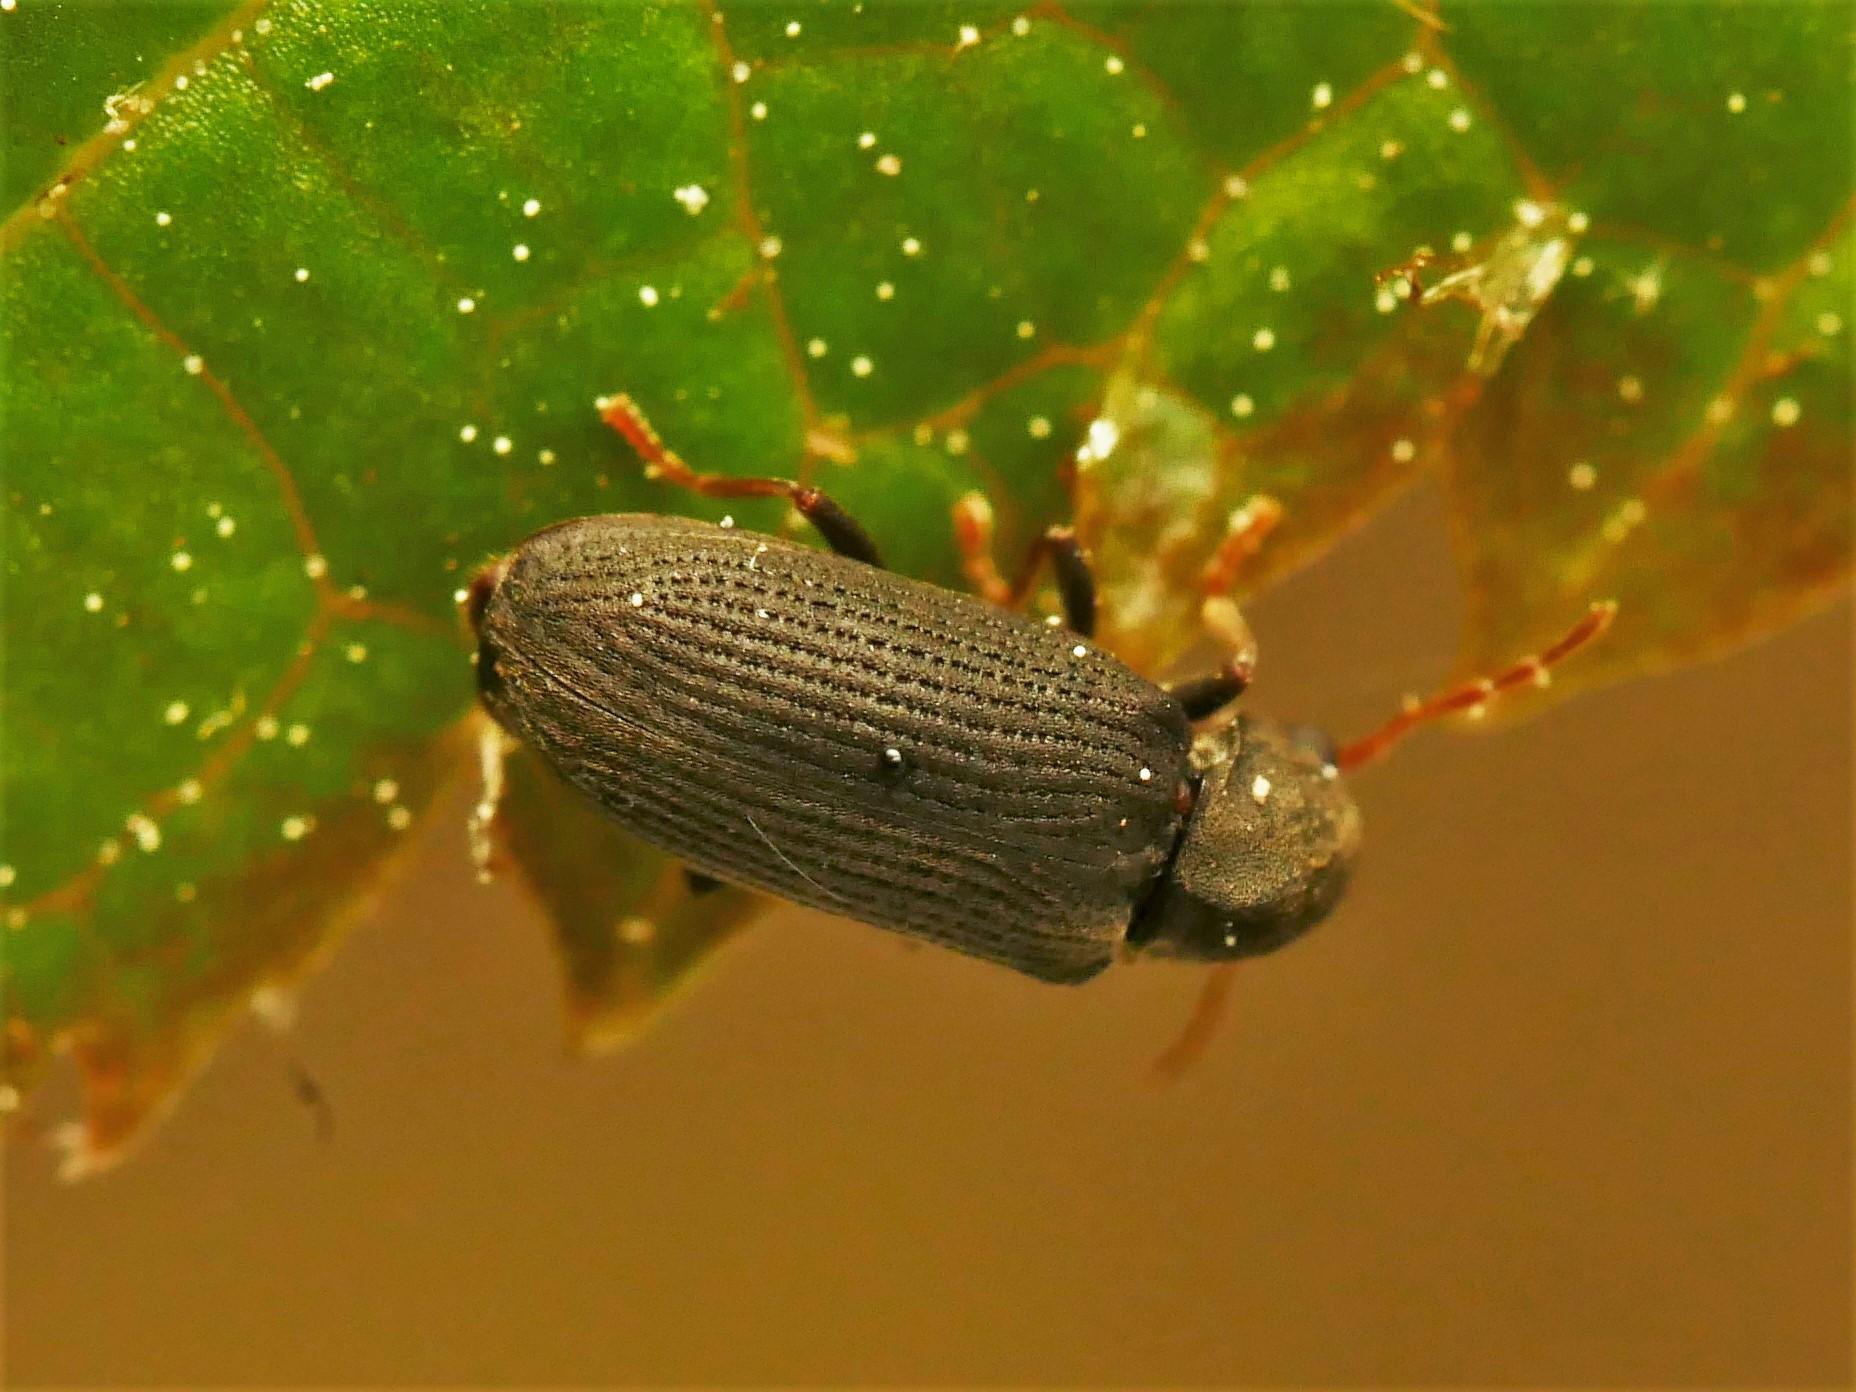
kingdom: Animalia
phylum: Arthropoda
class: Insecta
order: Coleoptera
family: Anobiidae
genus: Hemicoelus
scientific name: Hemicoelus fulvicornis
